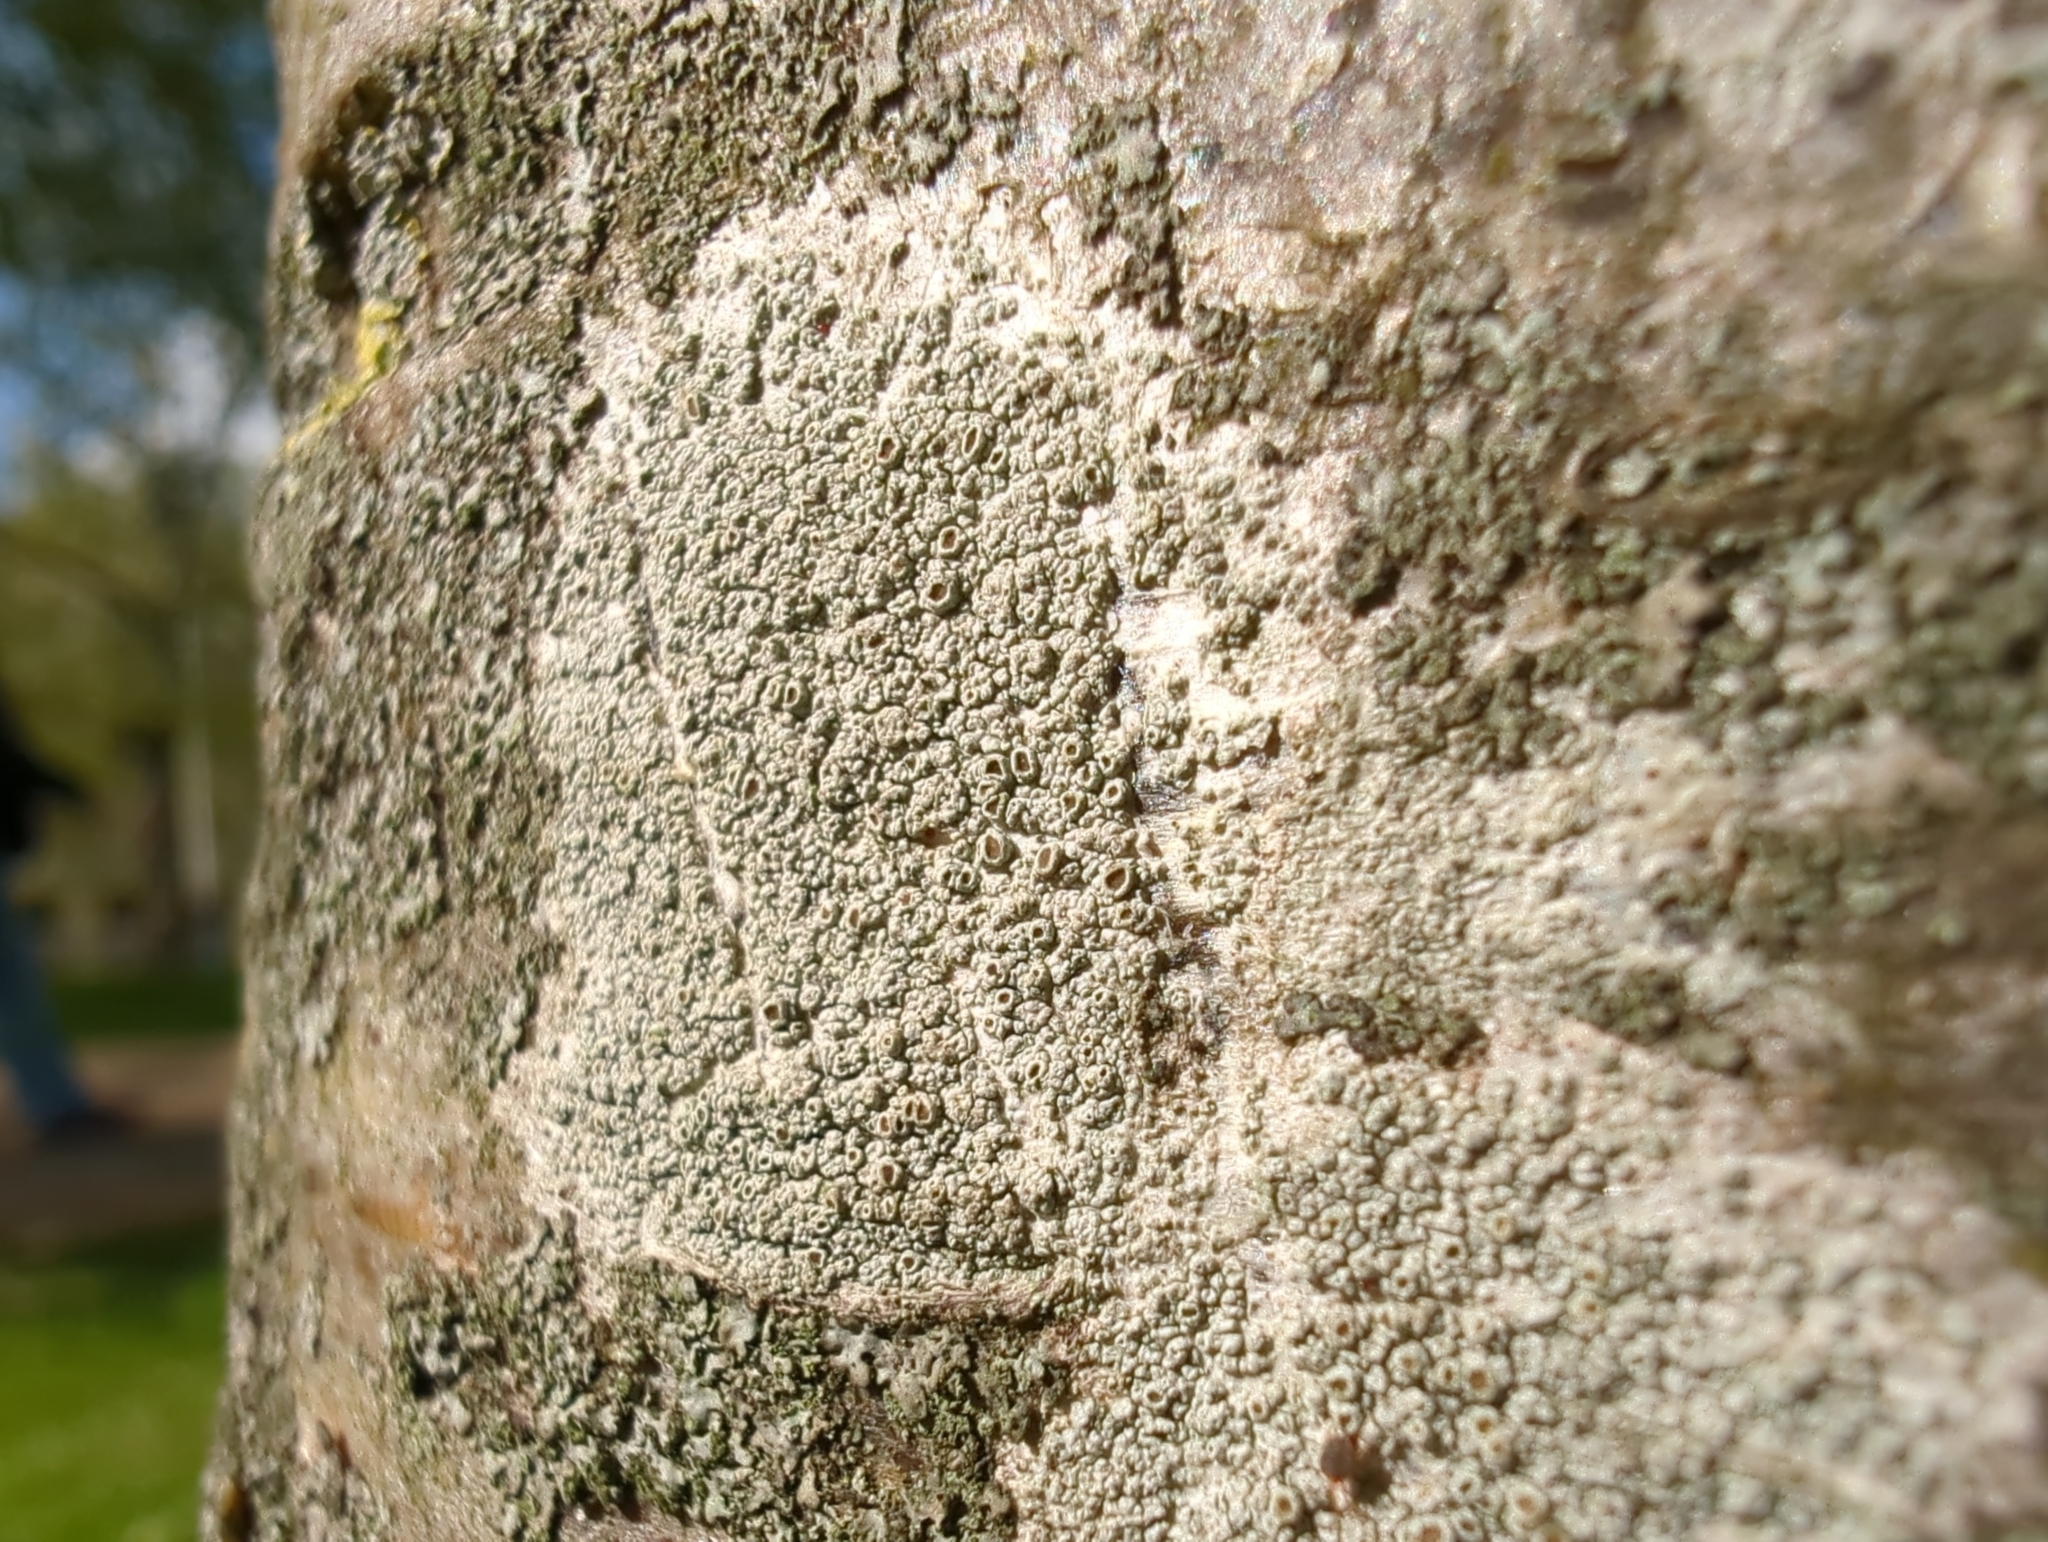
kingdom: Fungi
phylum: Ascomycota
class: Lecanoromycetes
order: Lecanorales
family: Lecanoraceae
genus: Lecanora
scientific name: Lecanora
